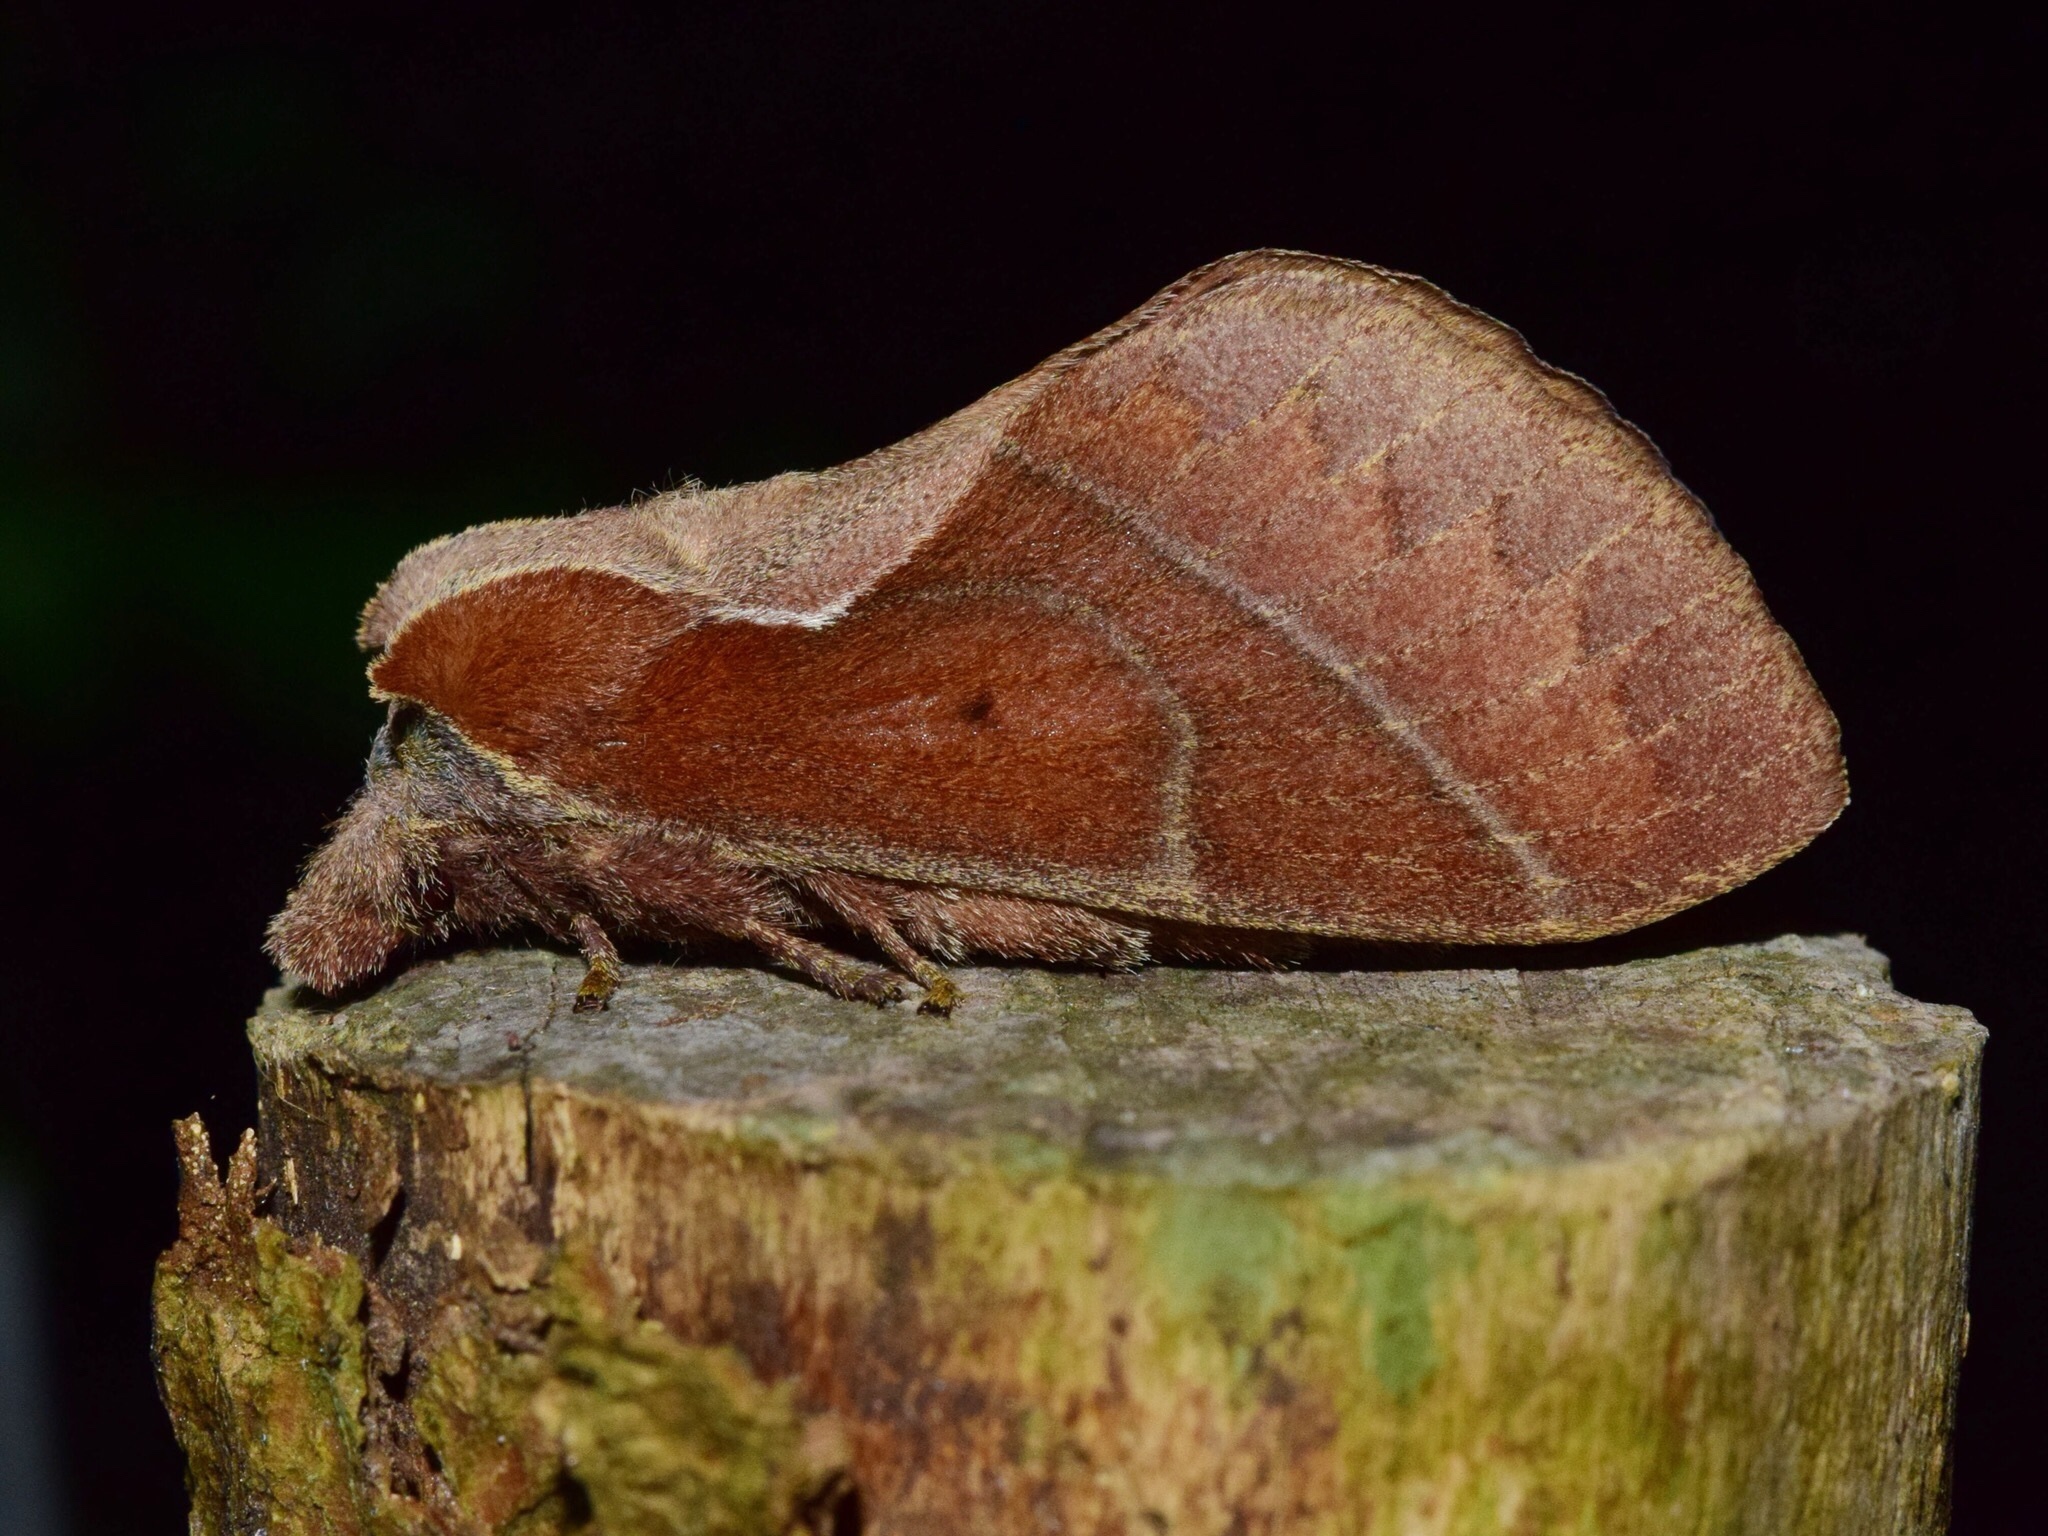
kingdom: Animalia
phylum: Arthropoda
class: Insecta
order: Lepidoptera
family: Lasiocampidae
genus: Stoermeriana
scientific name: Stoermeriana scapulosa
